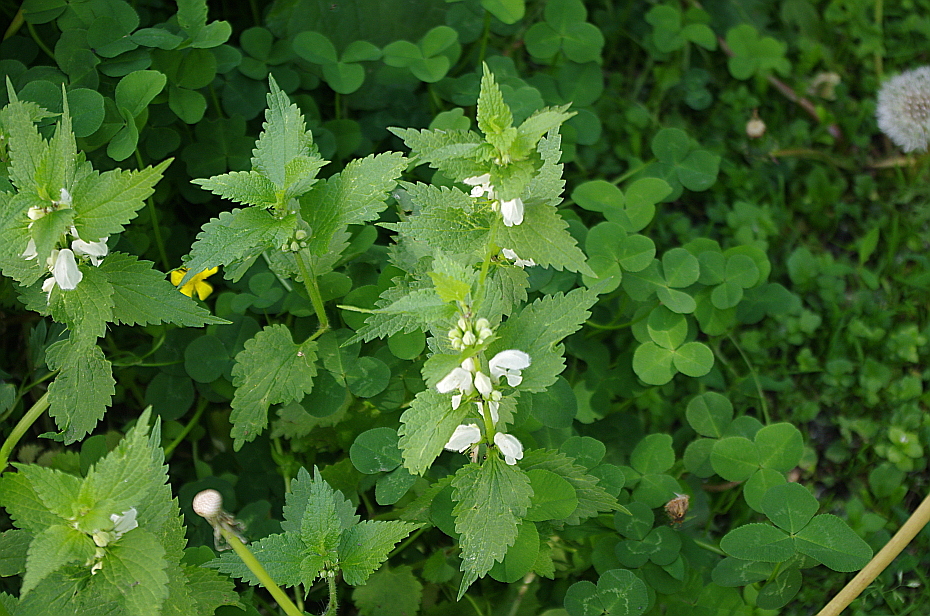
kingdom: Plantae
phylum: Tracheophyta
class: Magnoliopsida
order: Lamiales
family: Lamiaceae
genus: Lamium
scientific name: Lamium album
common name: White dead-nettle
